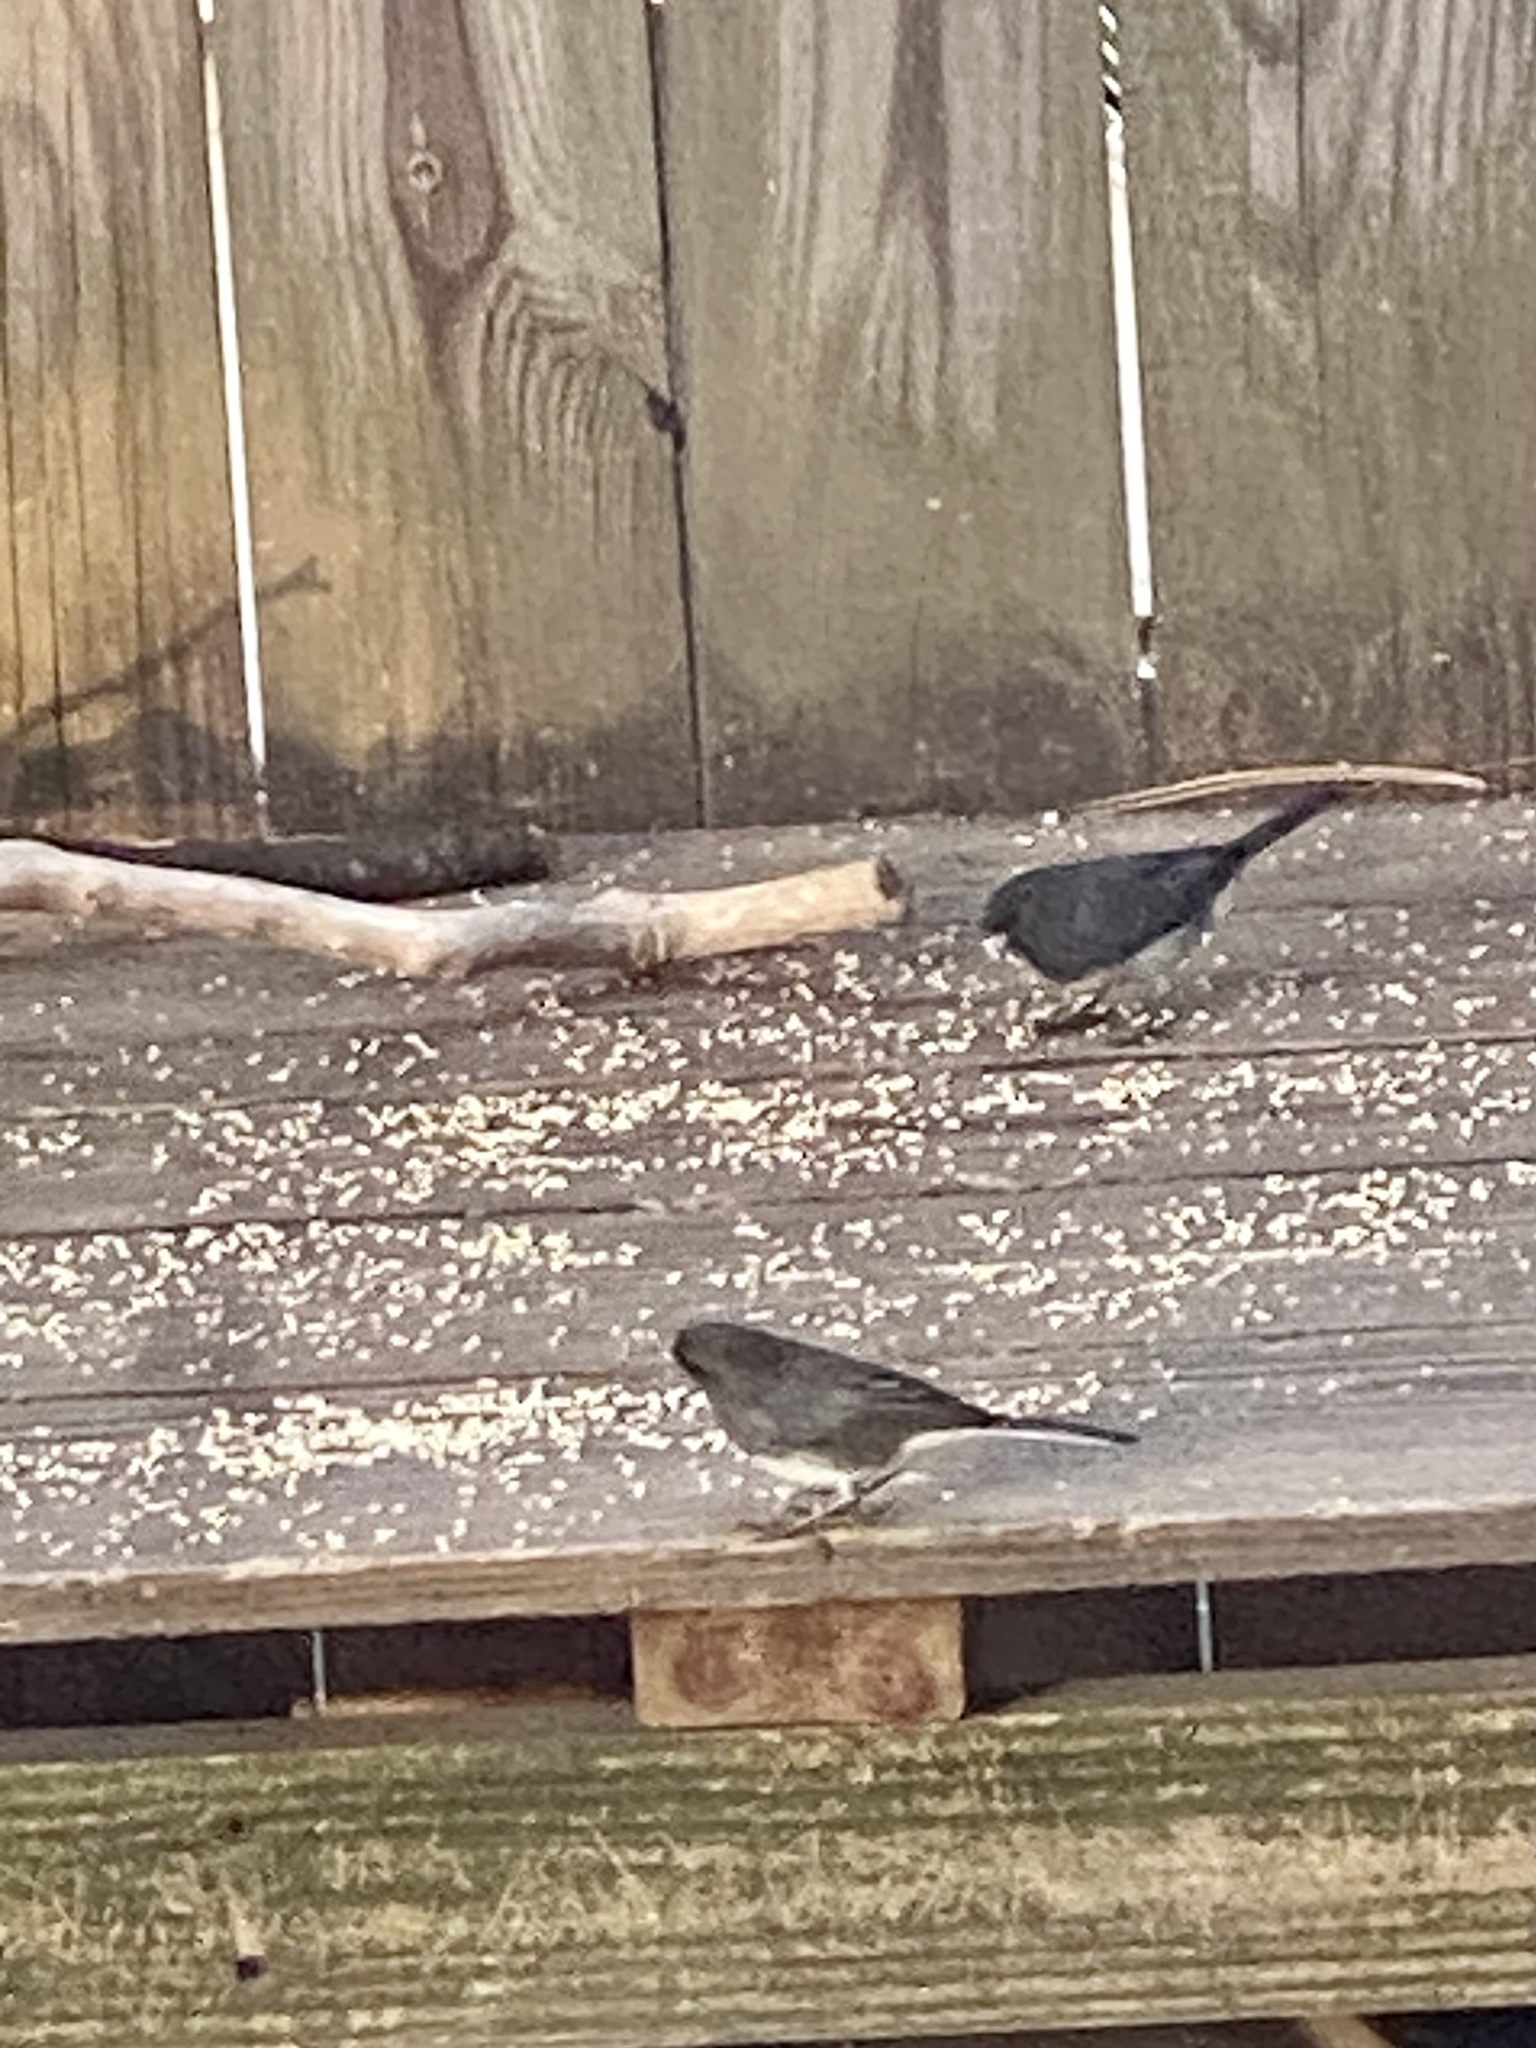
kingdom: Animalia
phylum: Chordata
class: Aves
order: Passeriformes
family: Passerellidae
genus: Junco
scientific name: Junco hyemalis
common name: Dark-eyed junco
